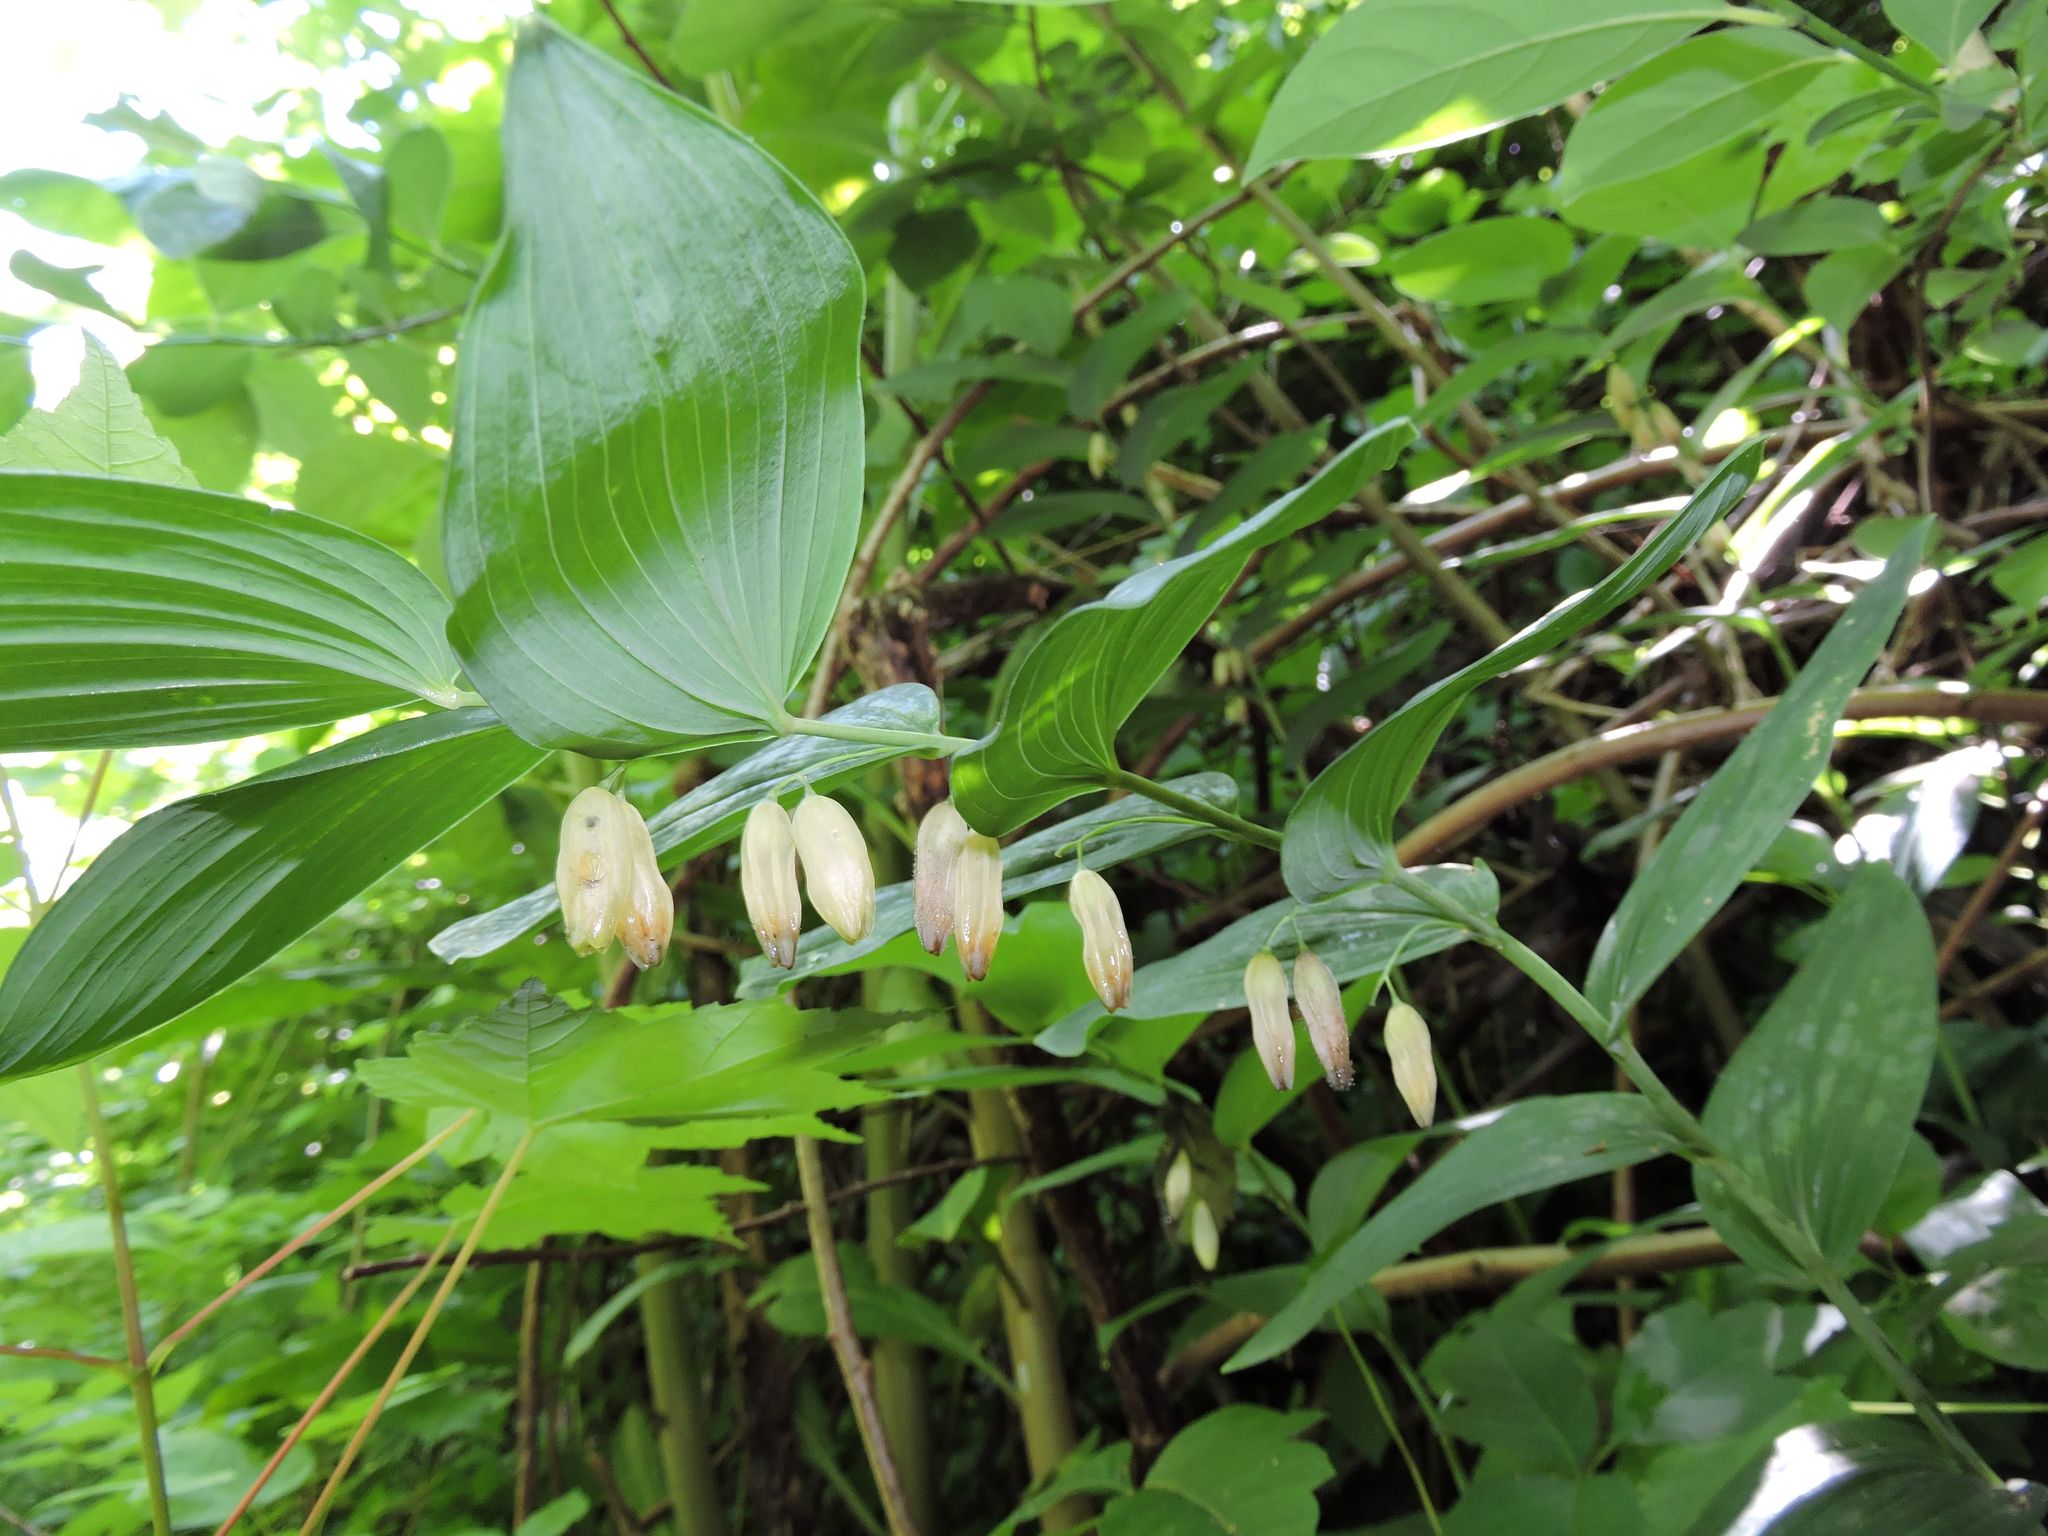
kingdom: Plantae
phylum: Tracheophyta
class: Liliopsida
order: Asparagales
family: Asparagaceae
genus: Polygonatum
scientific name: Polygonatum biflorum
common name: American solomon's-seal
